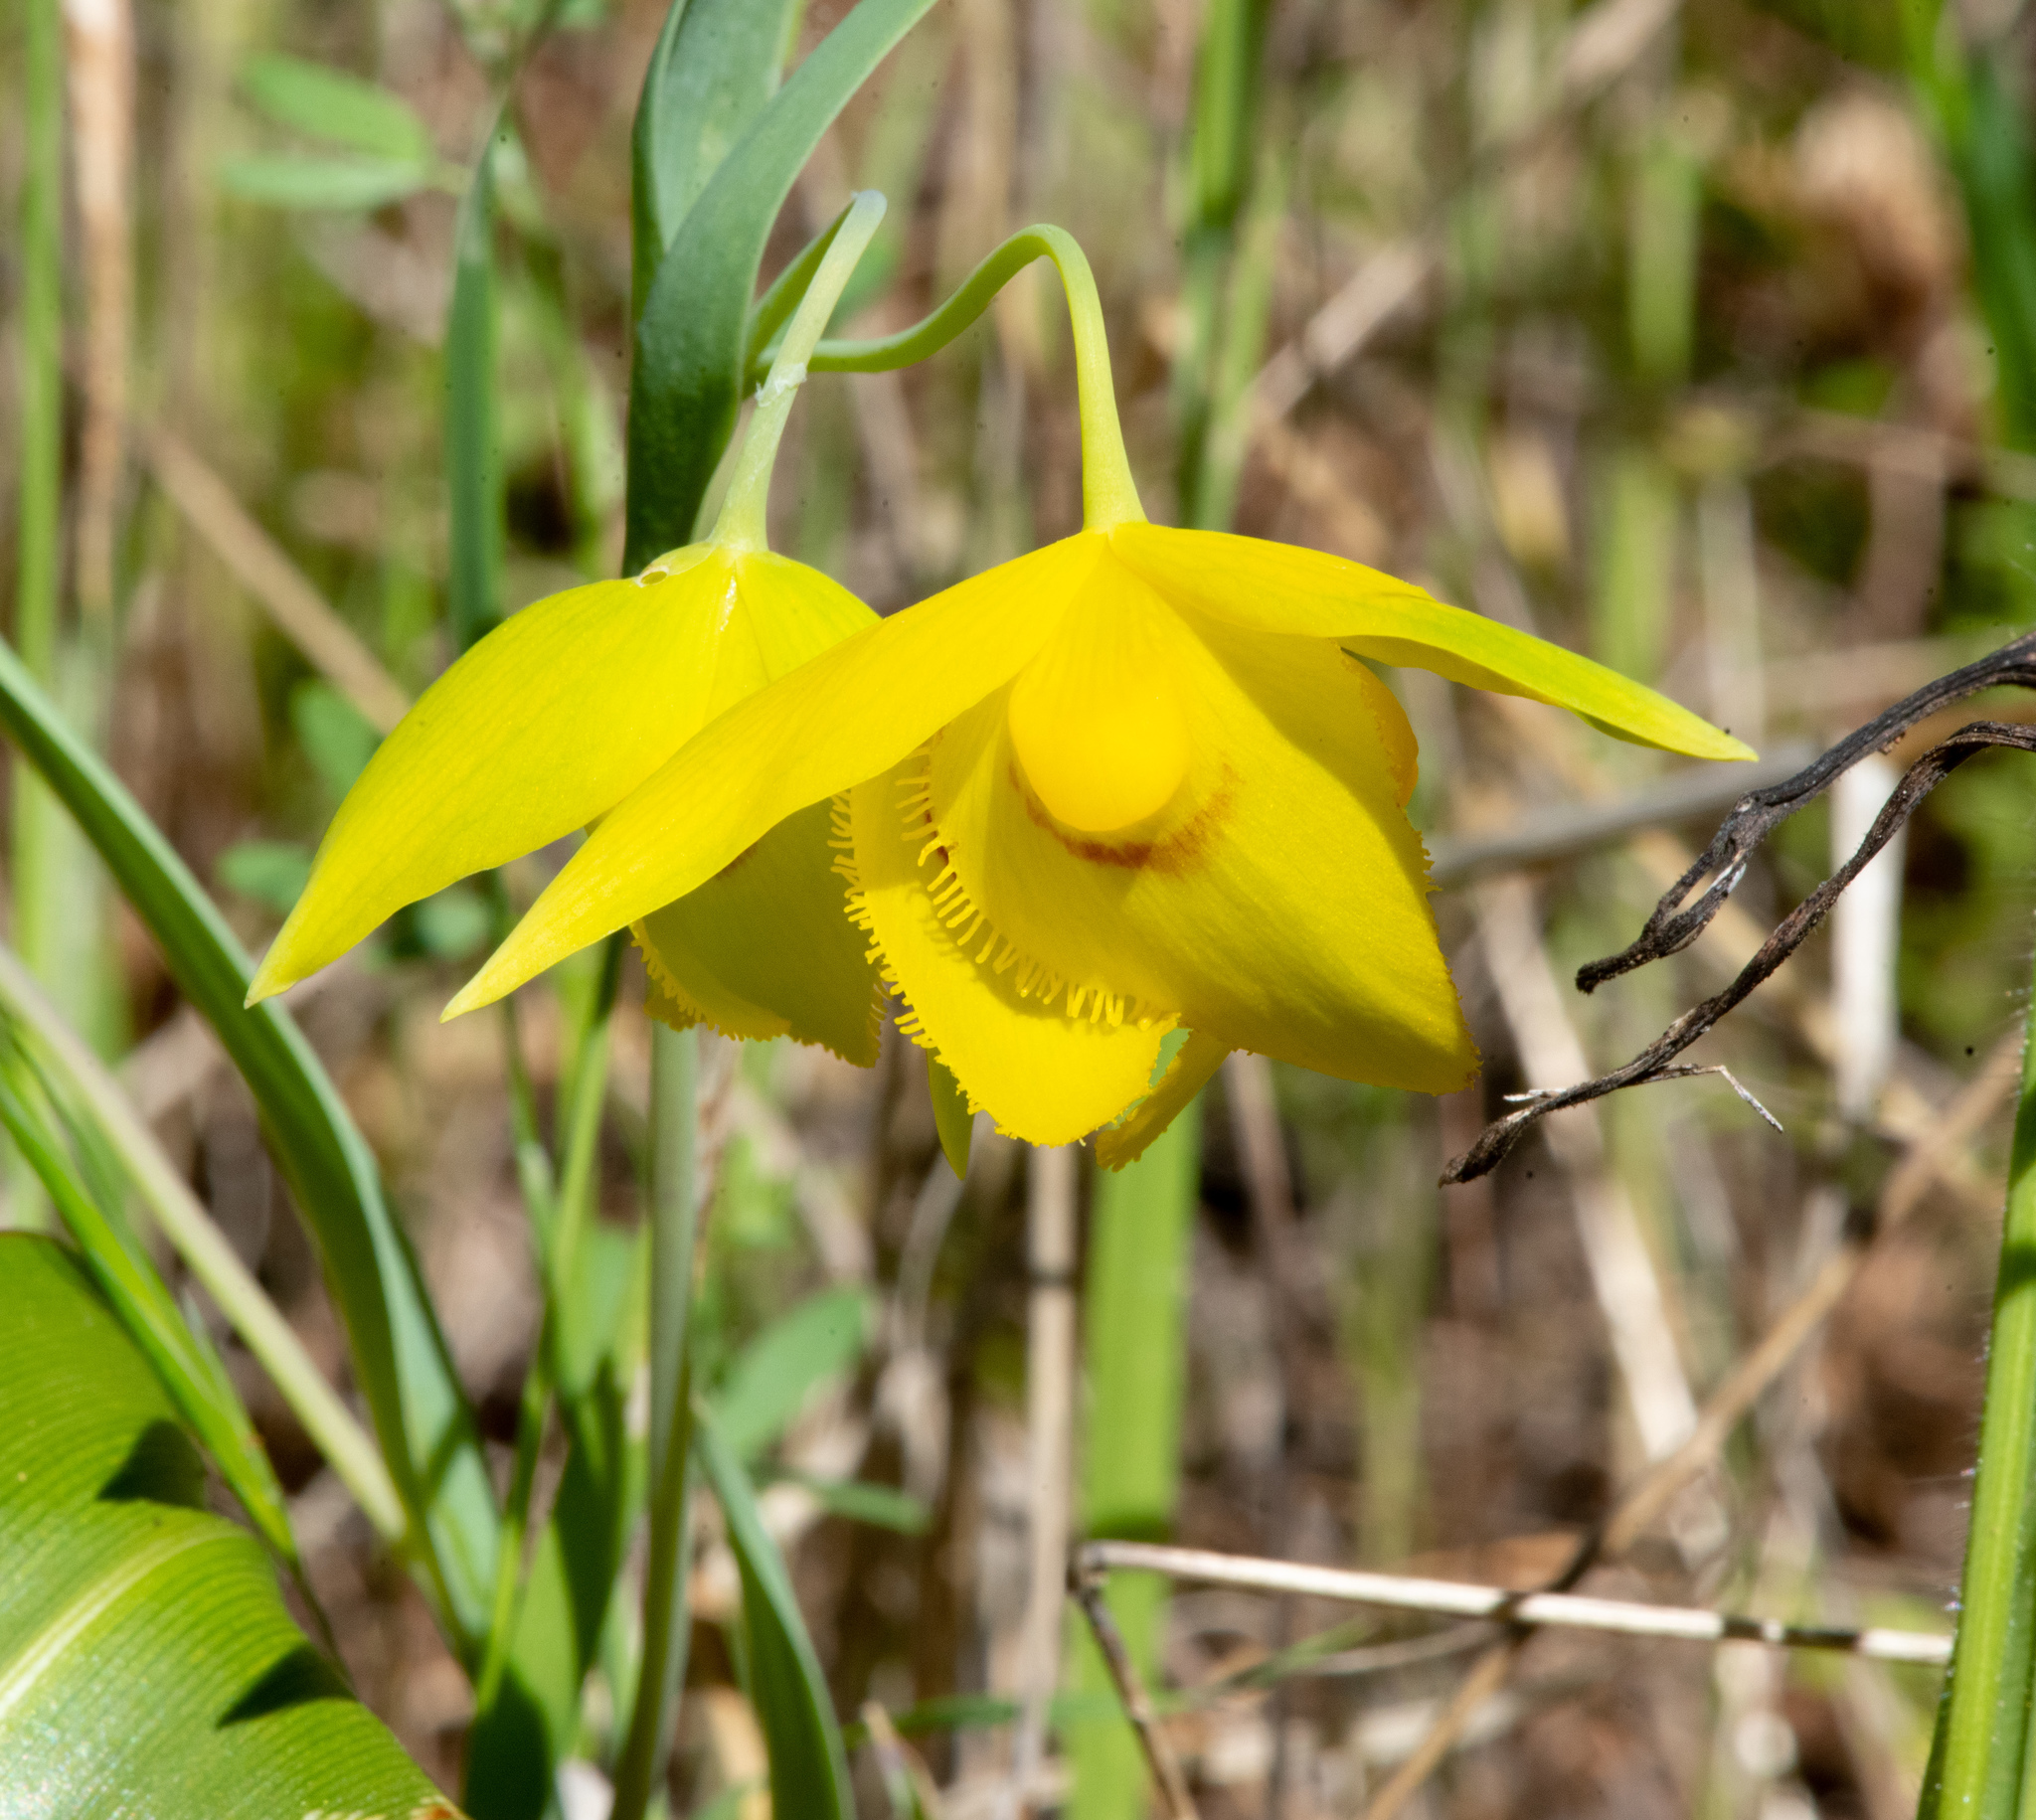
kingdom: Plantae
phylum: Tracheophyta
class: Liliopsida
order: Liliales
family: Liliaceae
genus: Calochortus
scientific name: Calochortus amabilis
